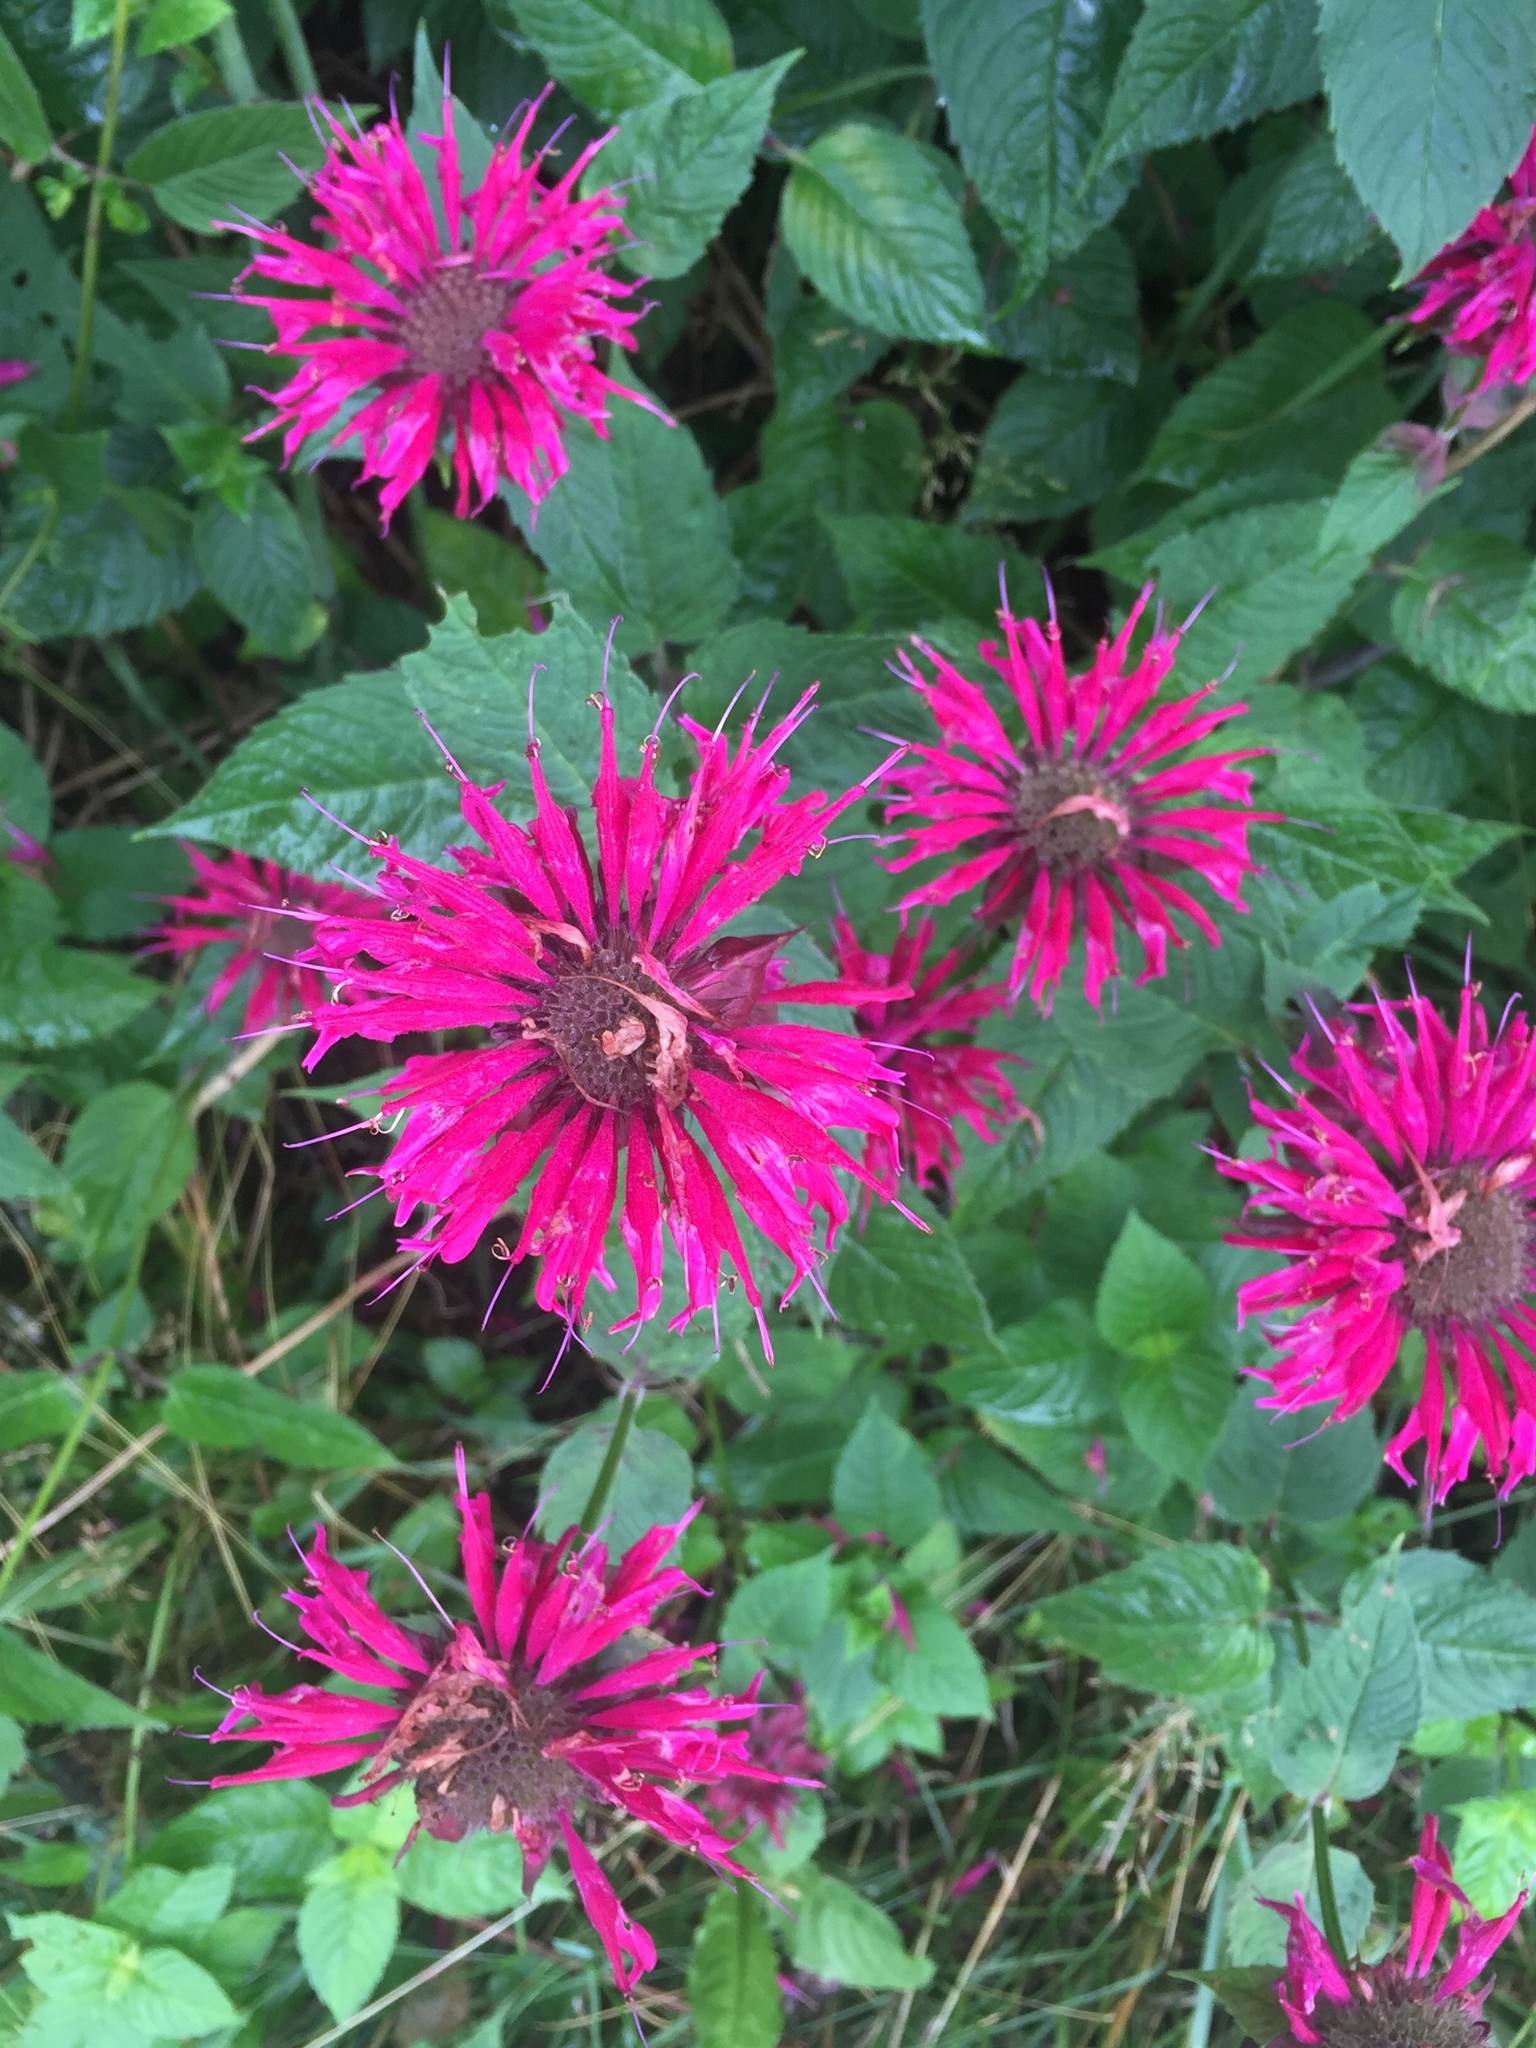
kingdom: Plantae
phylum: Tracheophyta
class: Magnoliopsida
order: Lamiales
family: Lamiaceae
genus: Monarda
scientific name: Monarda didyma
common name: Beebalm
